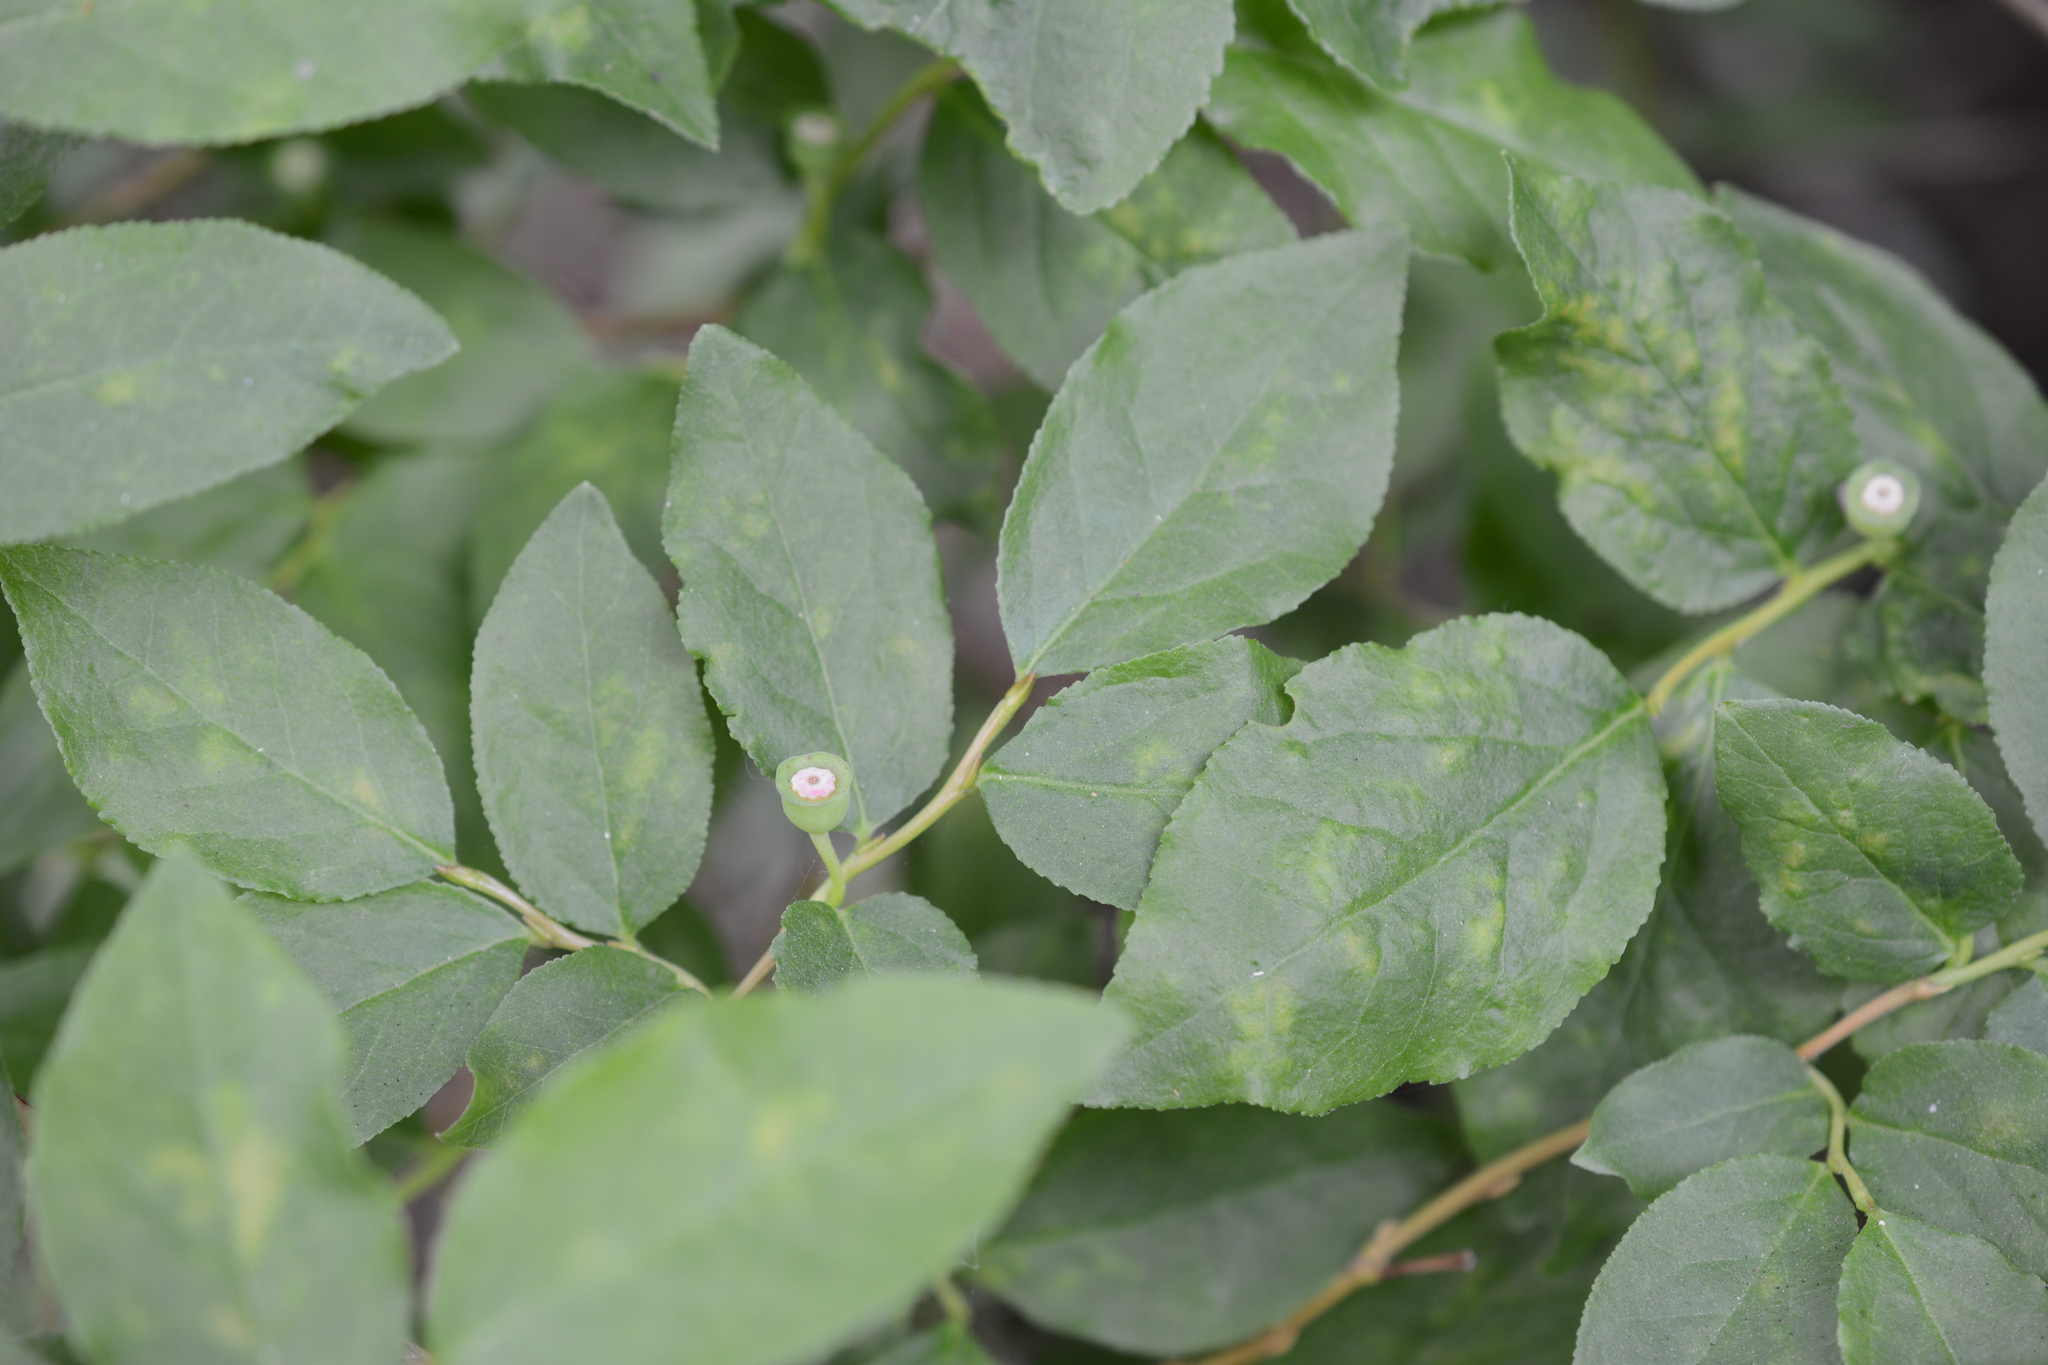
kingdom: Plantae
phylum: Tracheophyta
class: Magnoliopsida
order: Ericales
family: Ericaceae
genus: Vaccinium
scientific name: Vaccinium membranaceum
